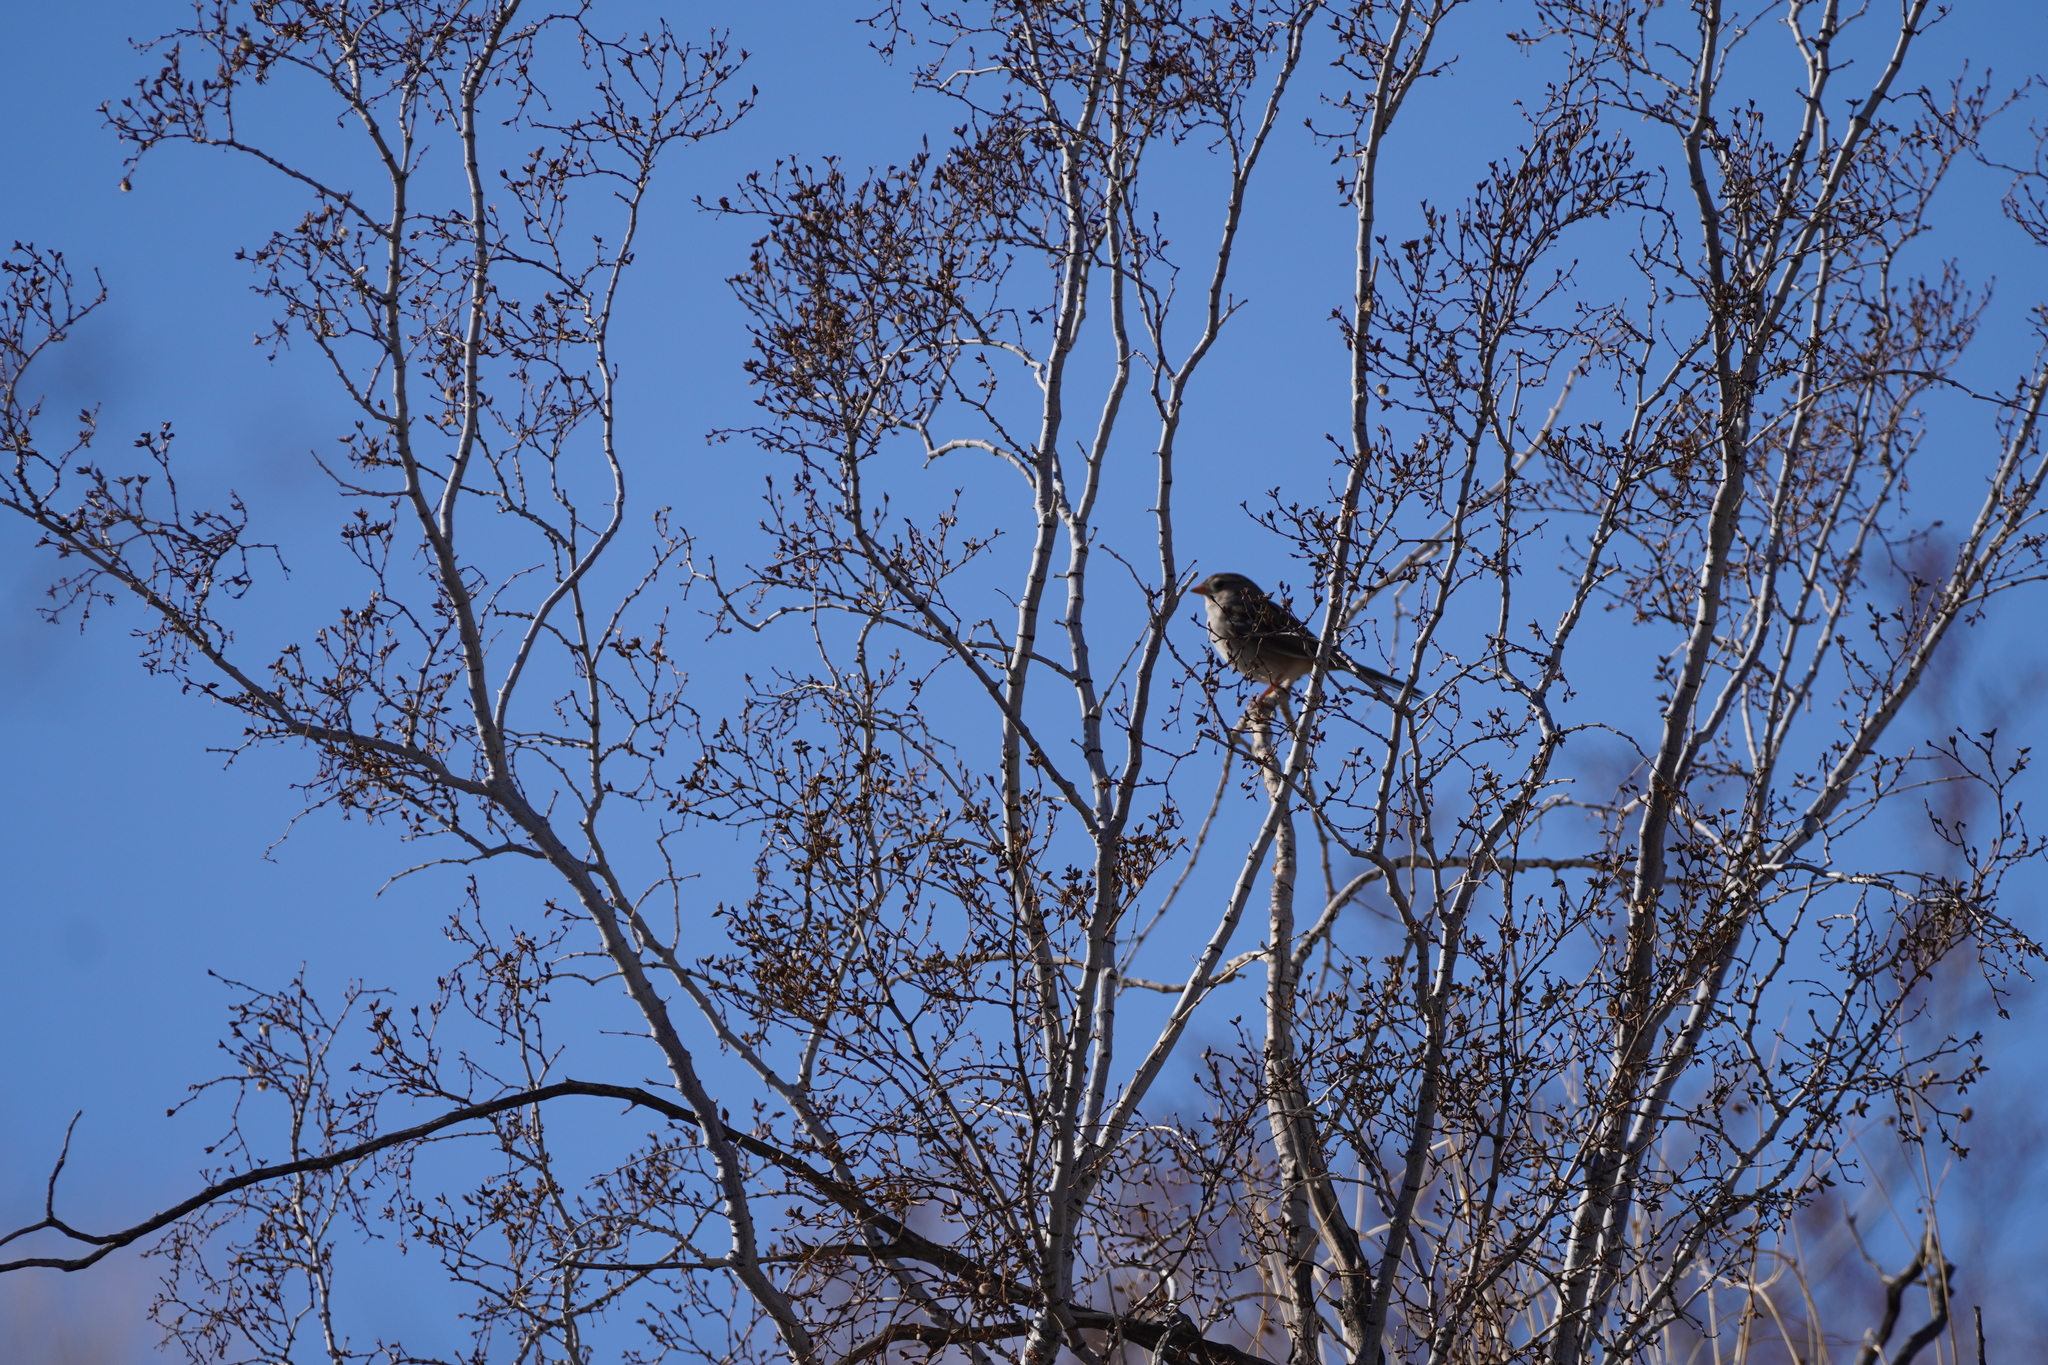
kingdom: Animalia
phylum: Chordata
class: Aves
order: Passeriformes
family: Passerellidae
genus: Zonotrichia
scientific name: Zonotrichia leucophrys
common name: White-crowned sparrow
